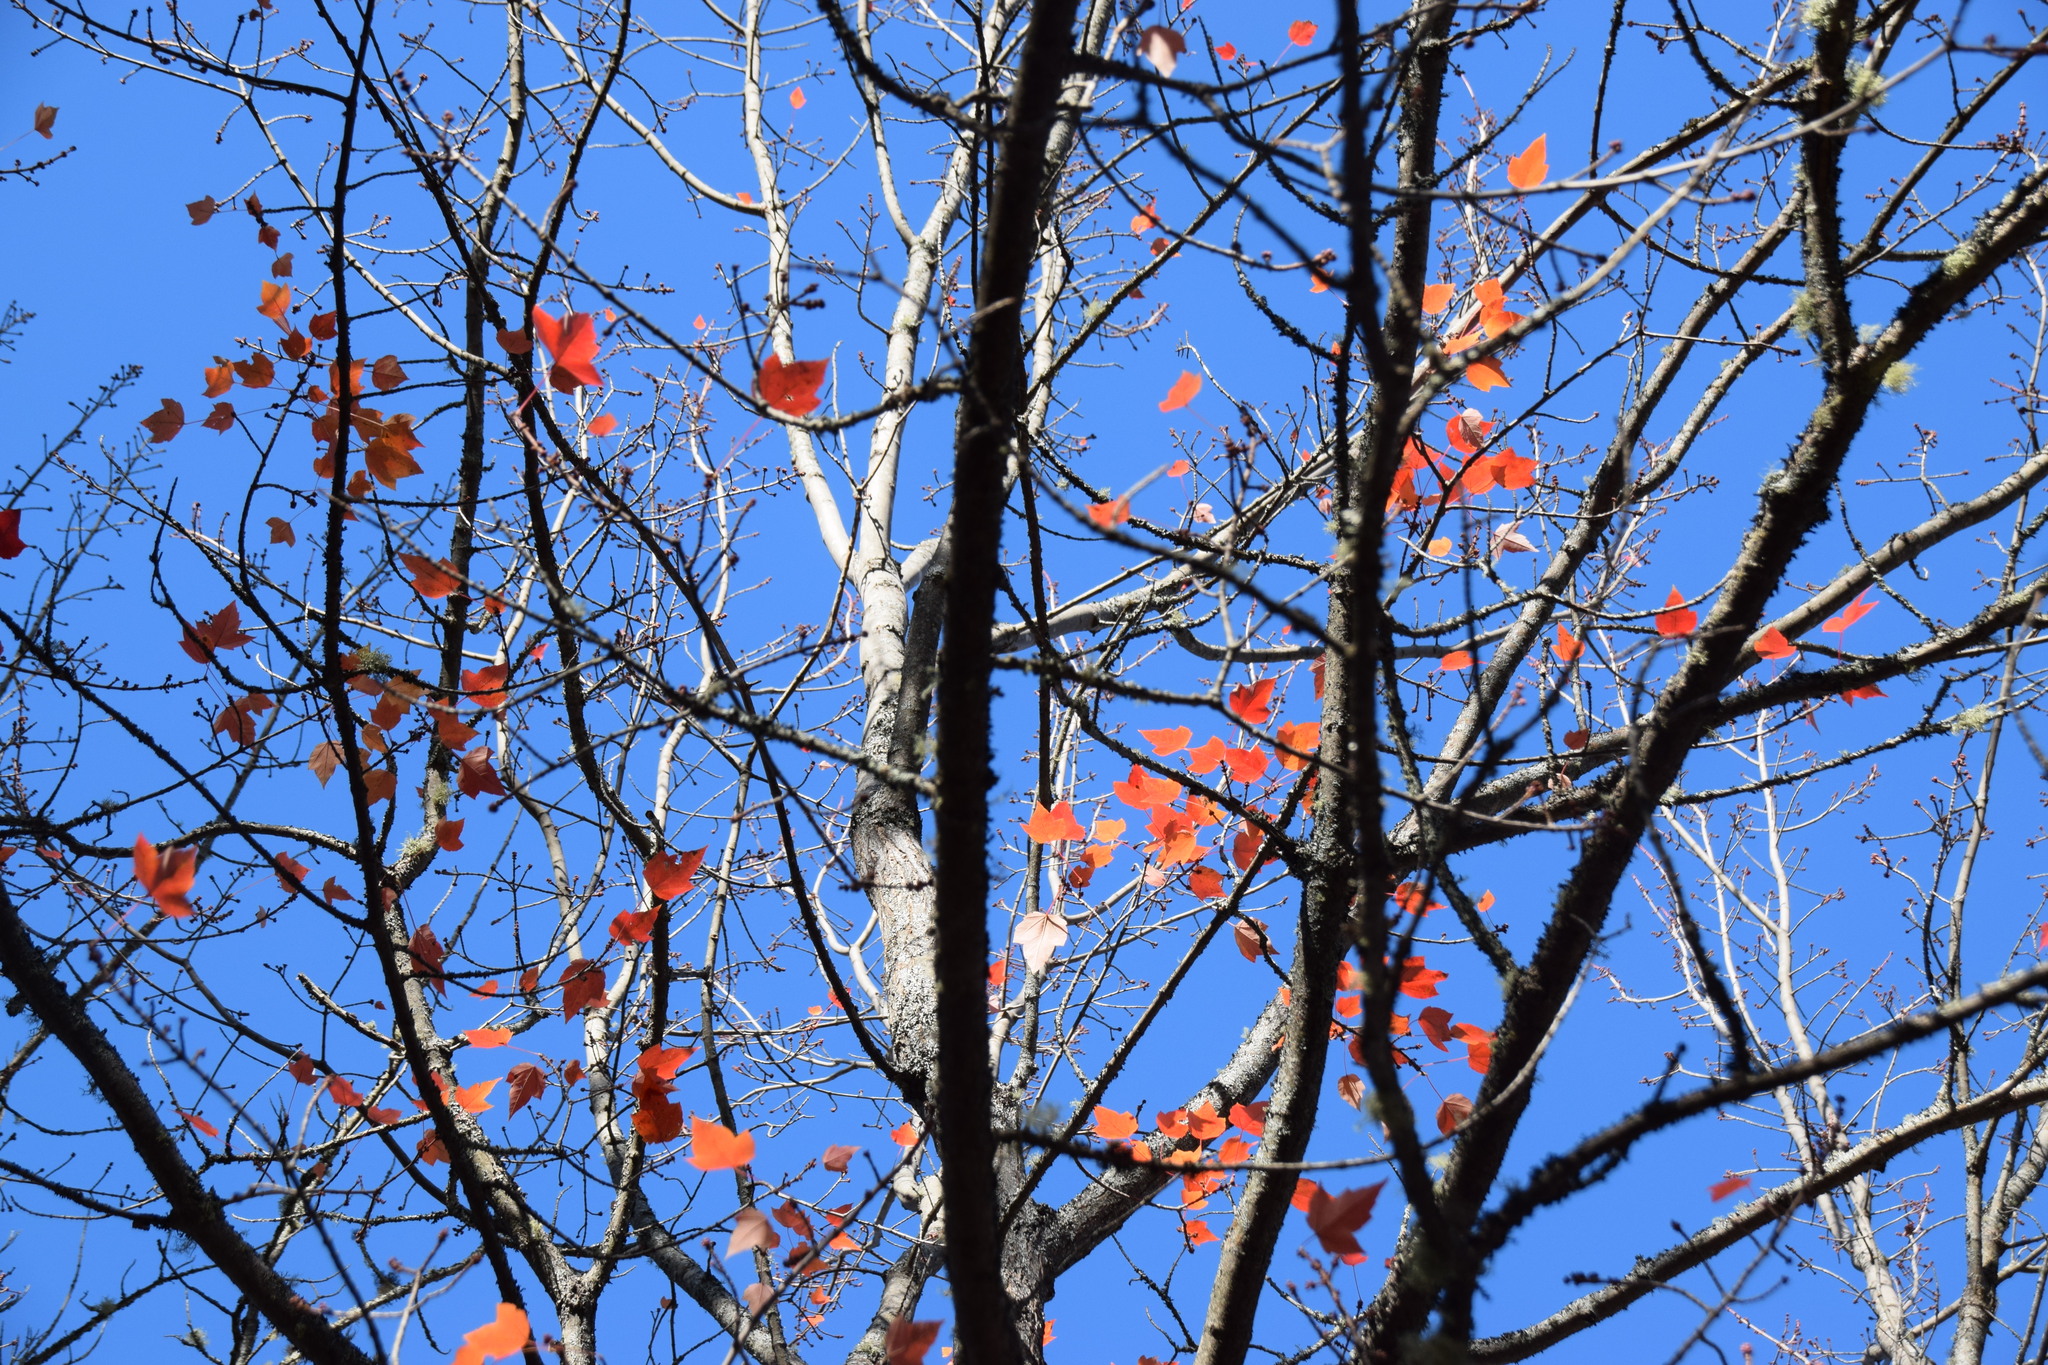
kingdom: Plantae
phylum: Tracheophyta
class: Magnoliopsida
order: Sapindales
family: Sapindaceae
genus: Acer
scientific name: Acer rubrum
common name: Red maple
